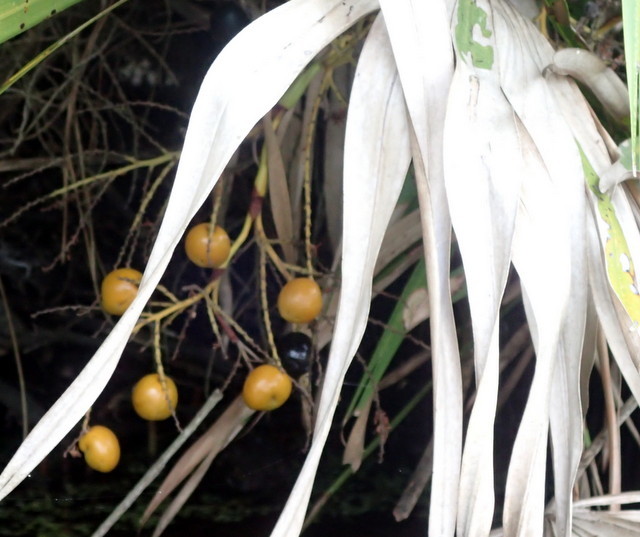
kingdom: Plantae
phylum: Tracheophyta
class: Liliopsida
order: Arecales
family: Arecaceae
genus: Serenoa
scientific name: Serenoa repens
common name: Saw-palmetto
